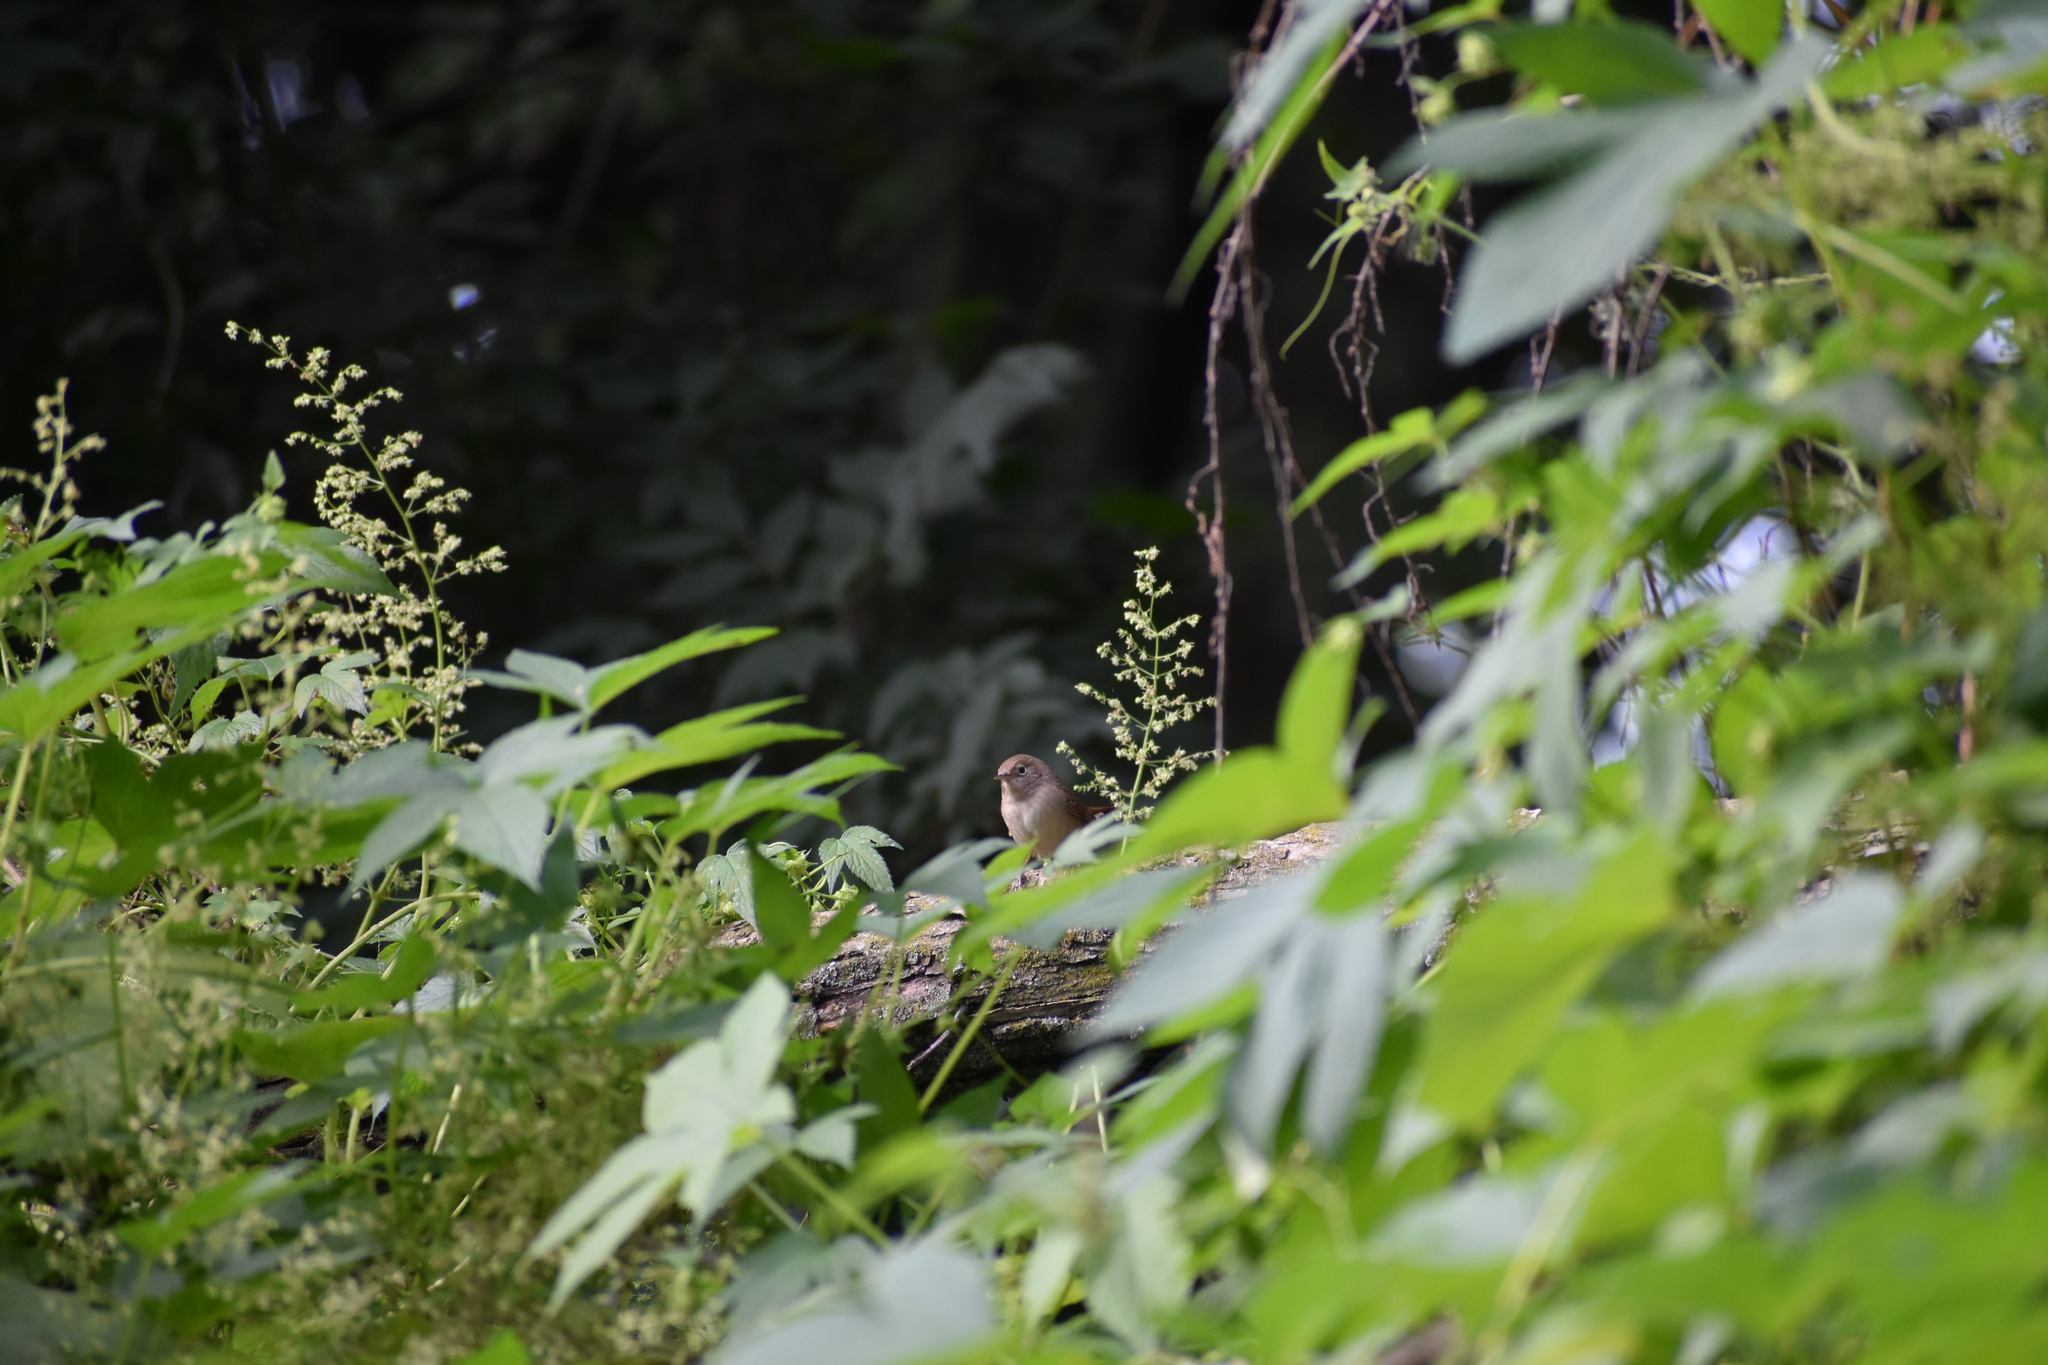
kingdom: Animalia
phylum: Chordata
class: Aves
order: Passeriformes
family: Troglodytidae
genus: Troglodytes
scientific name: Troglodytes aedon
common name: House wren
